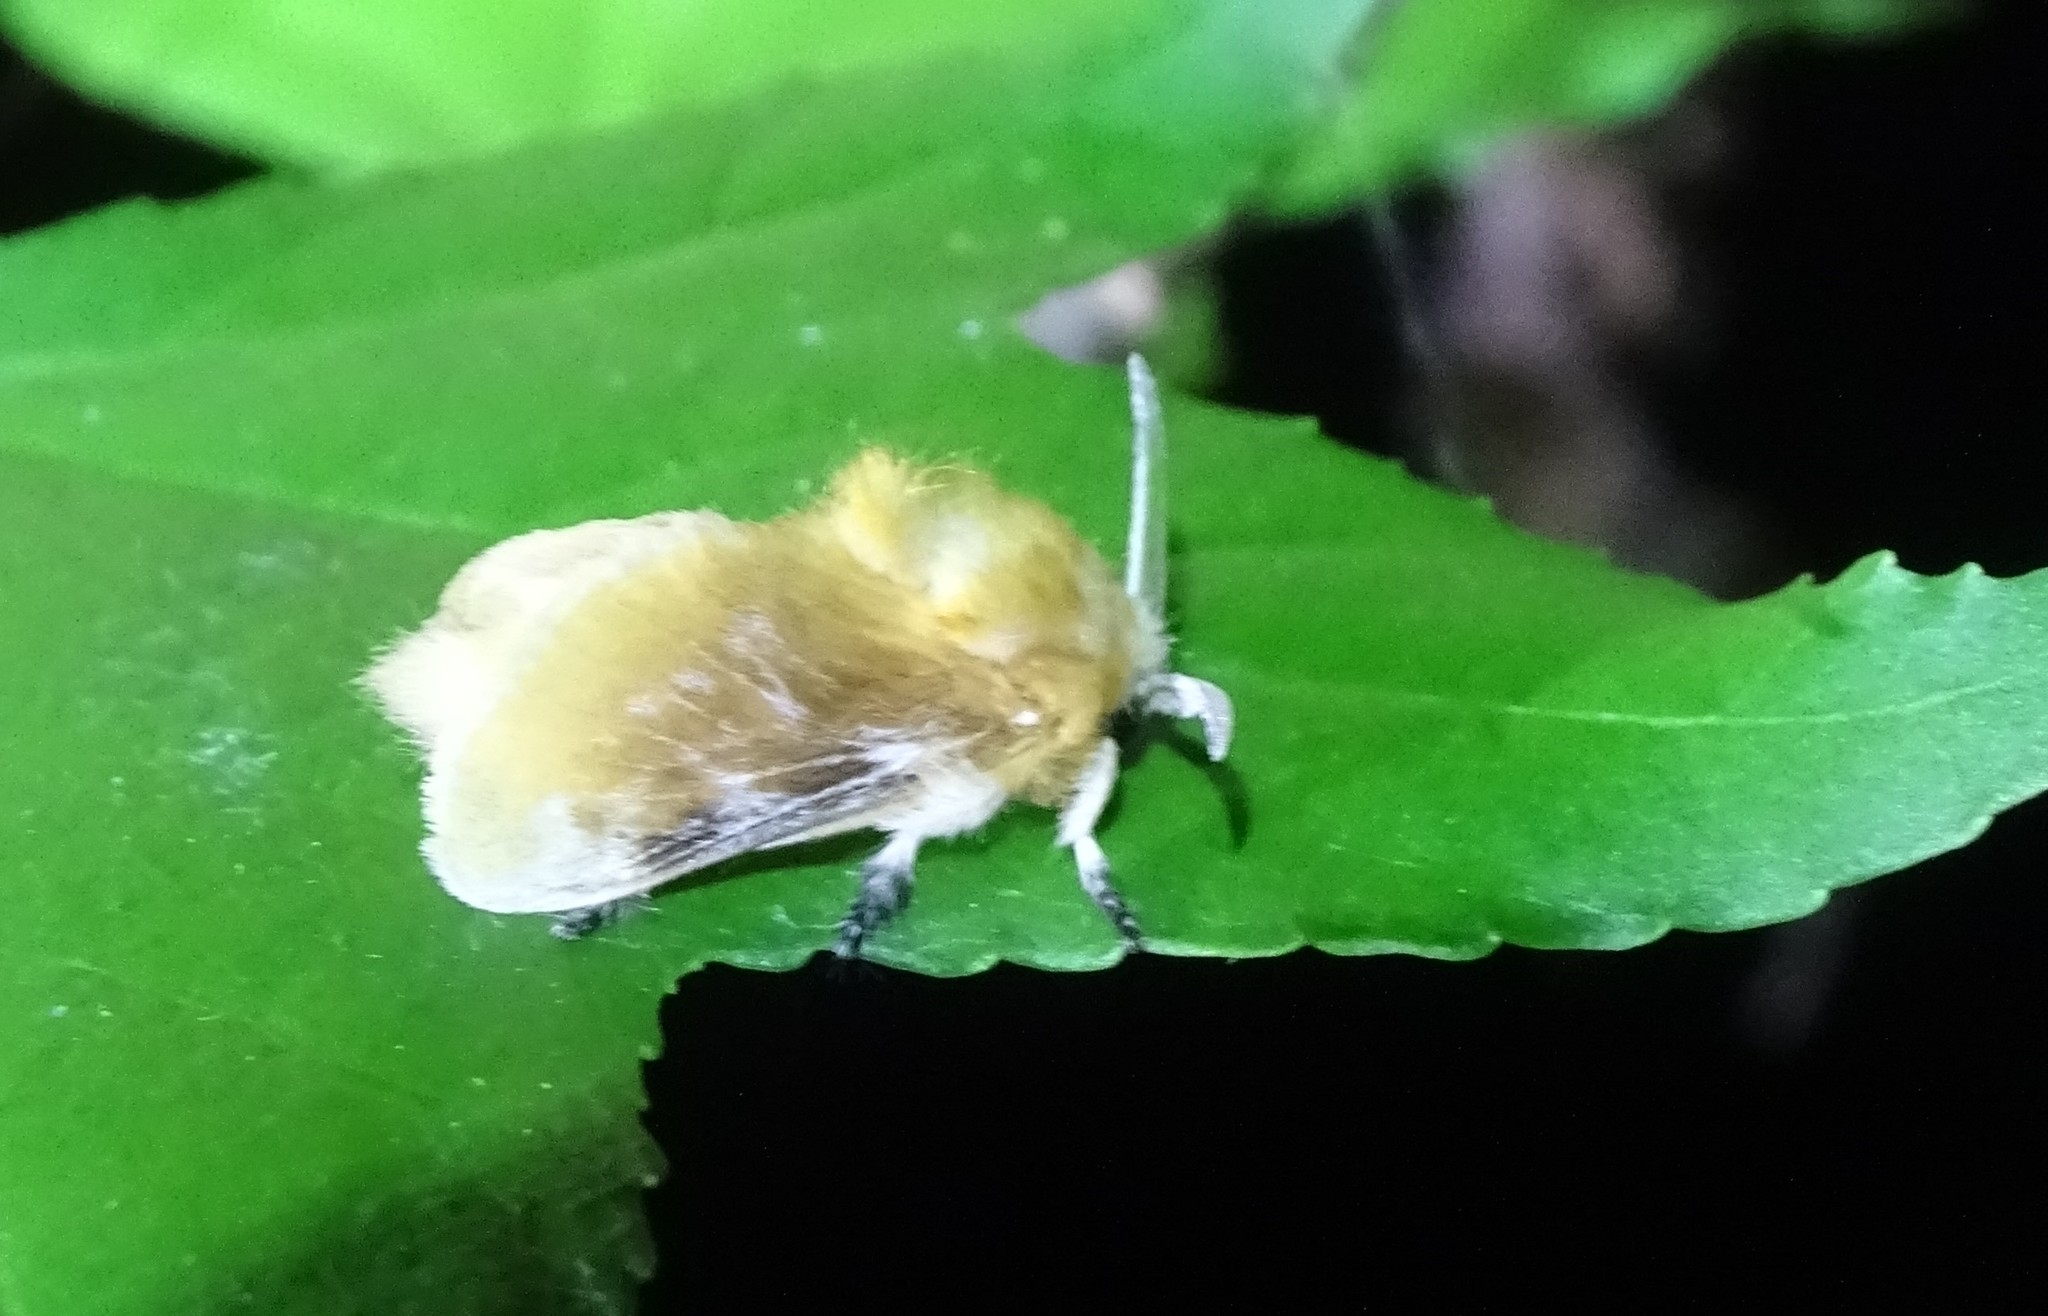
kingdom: Animalia
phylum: Arthropoda
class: Insecta
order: Lepidoptera
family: Megalopygidae
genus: Megalopyge
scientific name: Megalopyge opercularis
